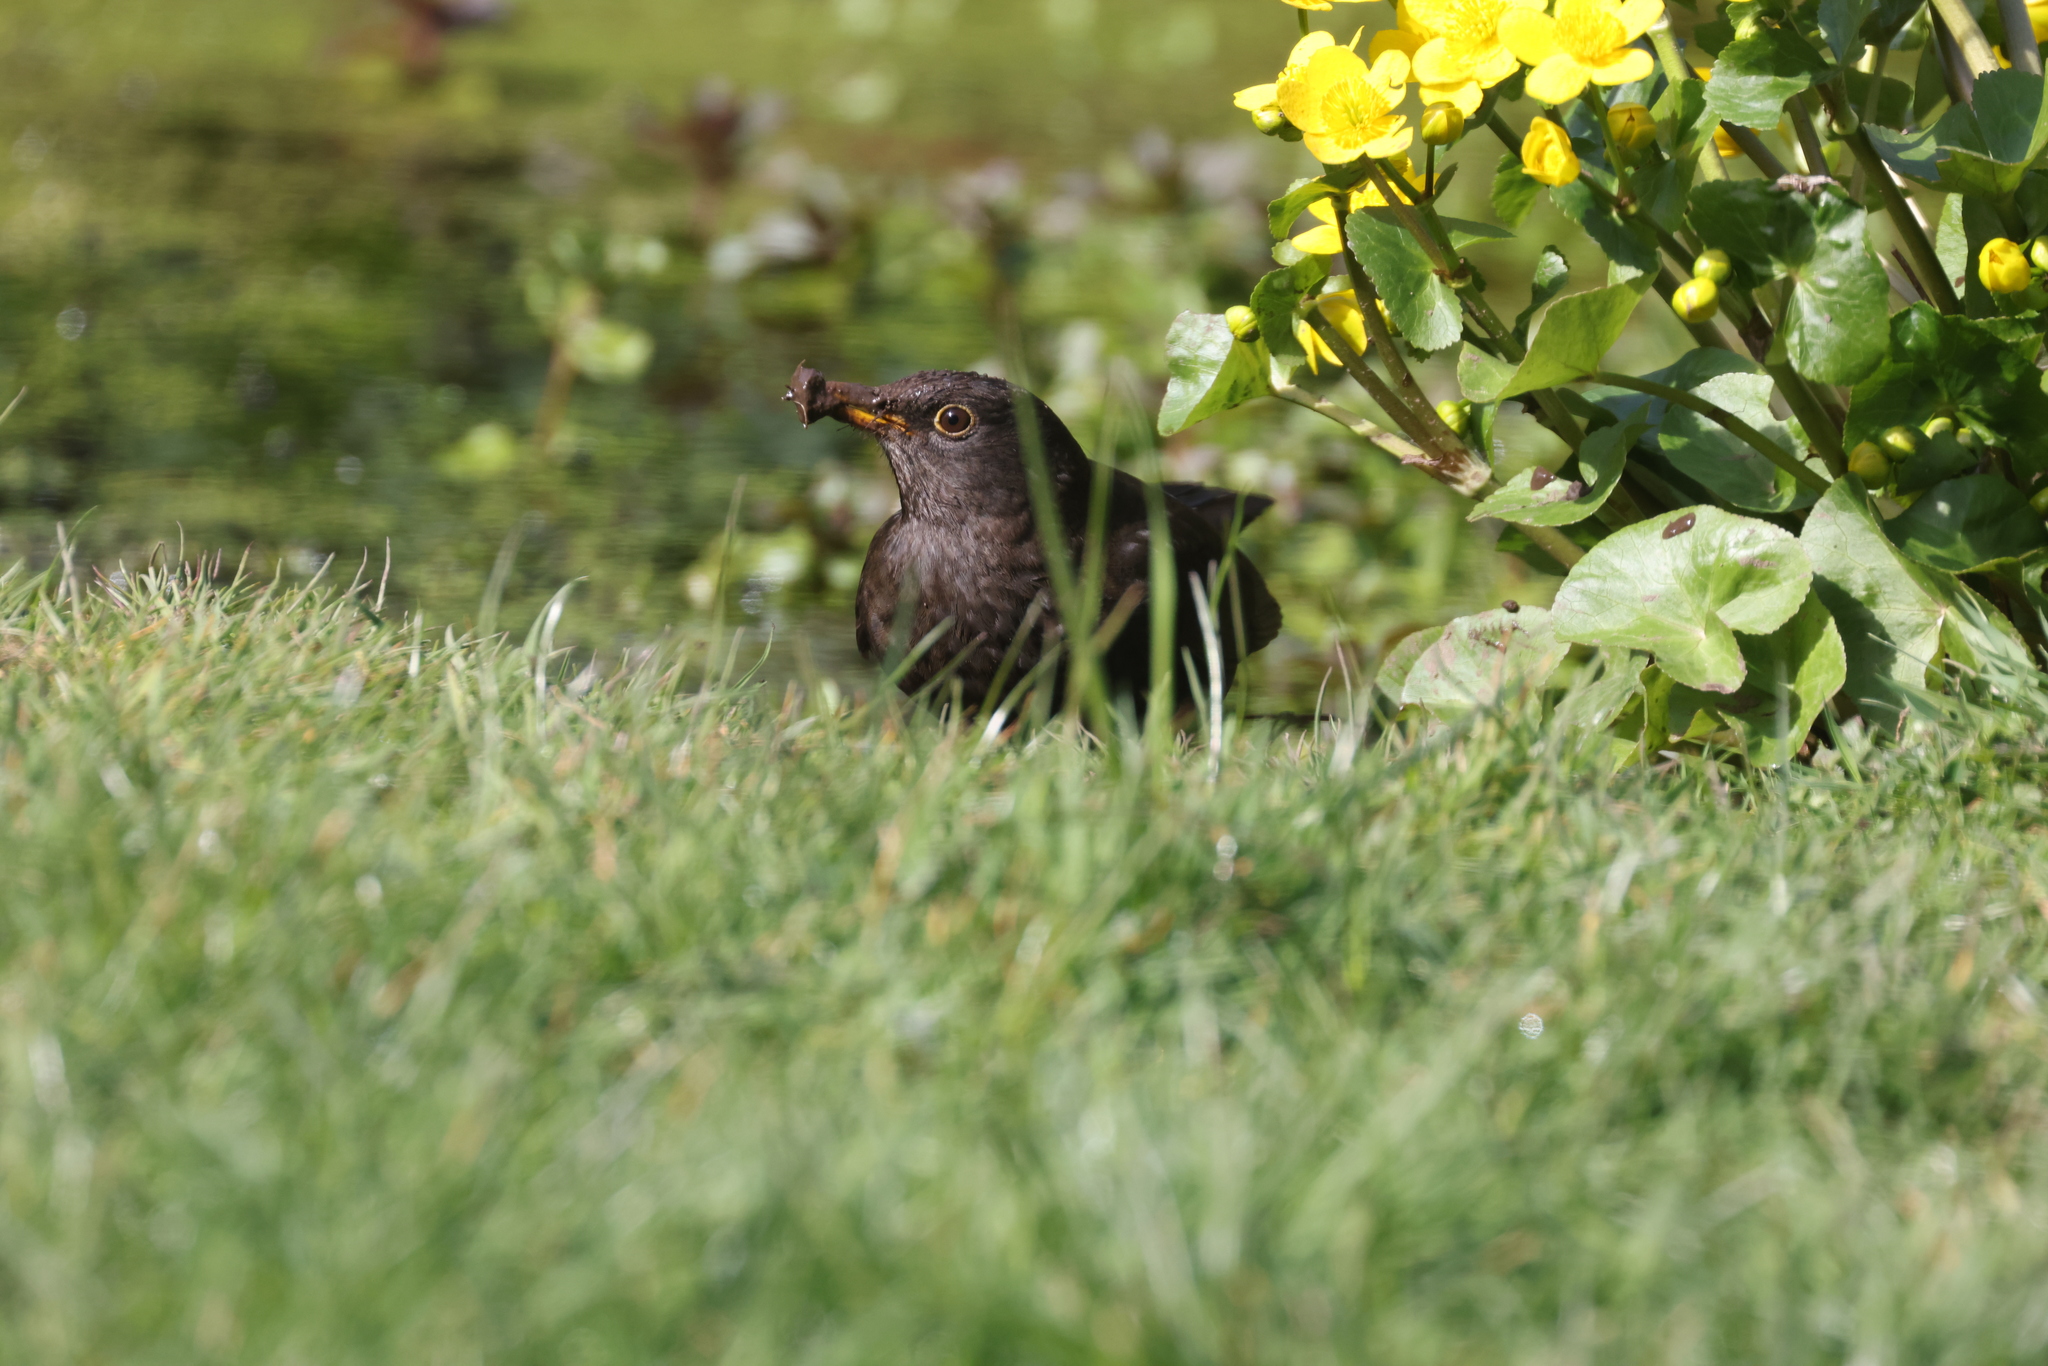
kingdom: Animalia
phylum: Chordata
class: Aves
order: Passeriformes
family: Turdidae
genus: Turdus
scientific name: Turdus merula
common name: Common blackbird
